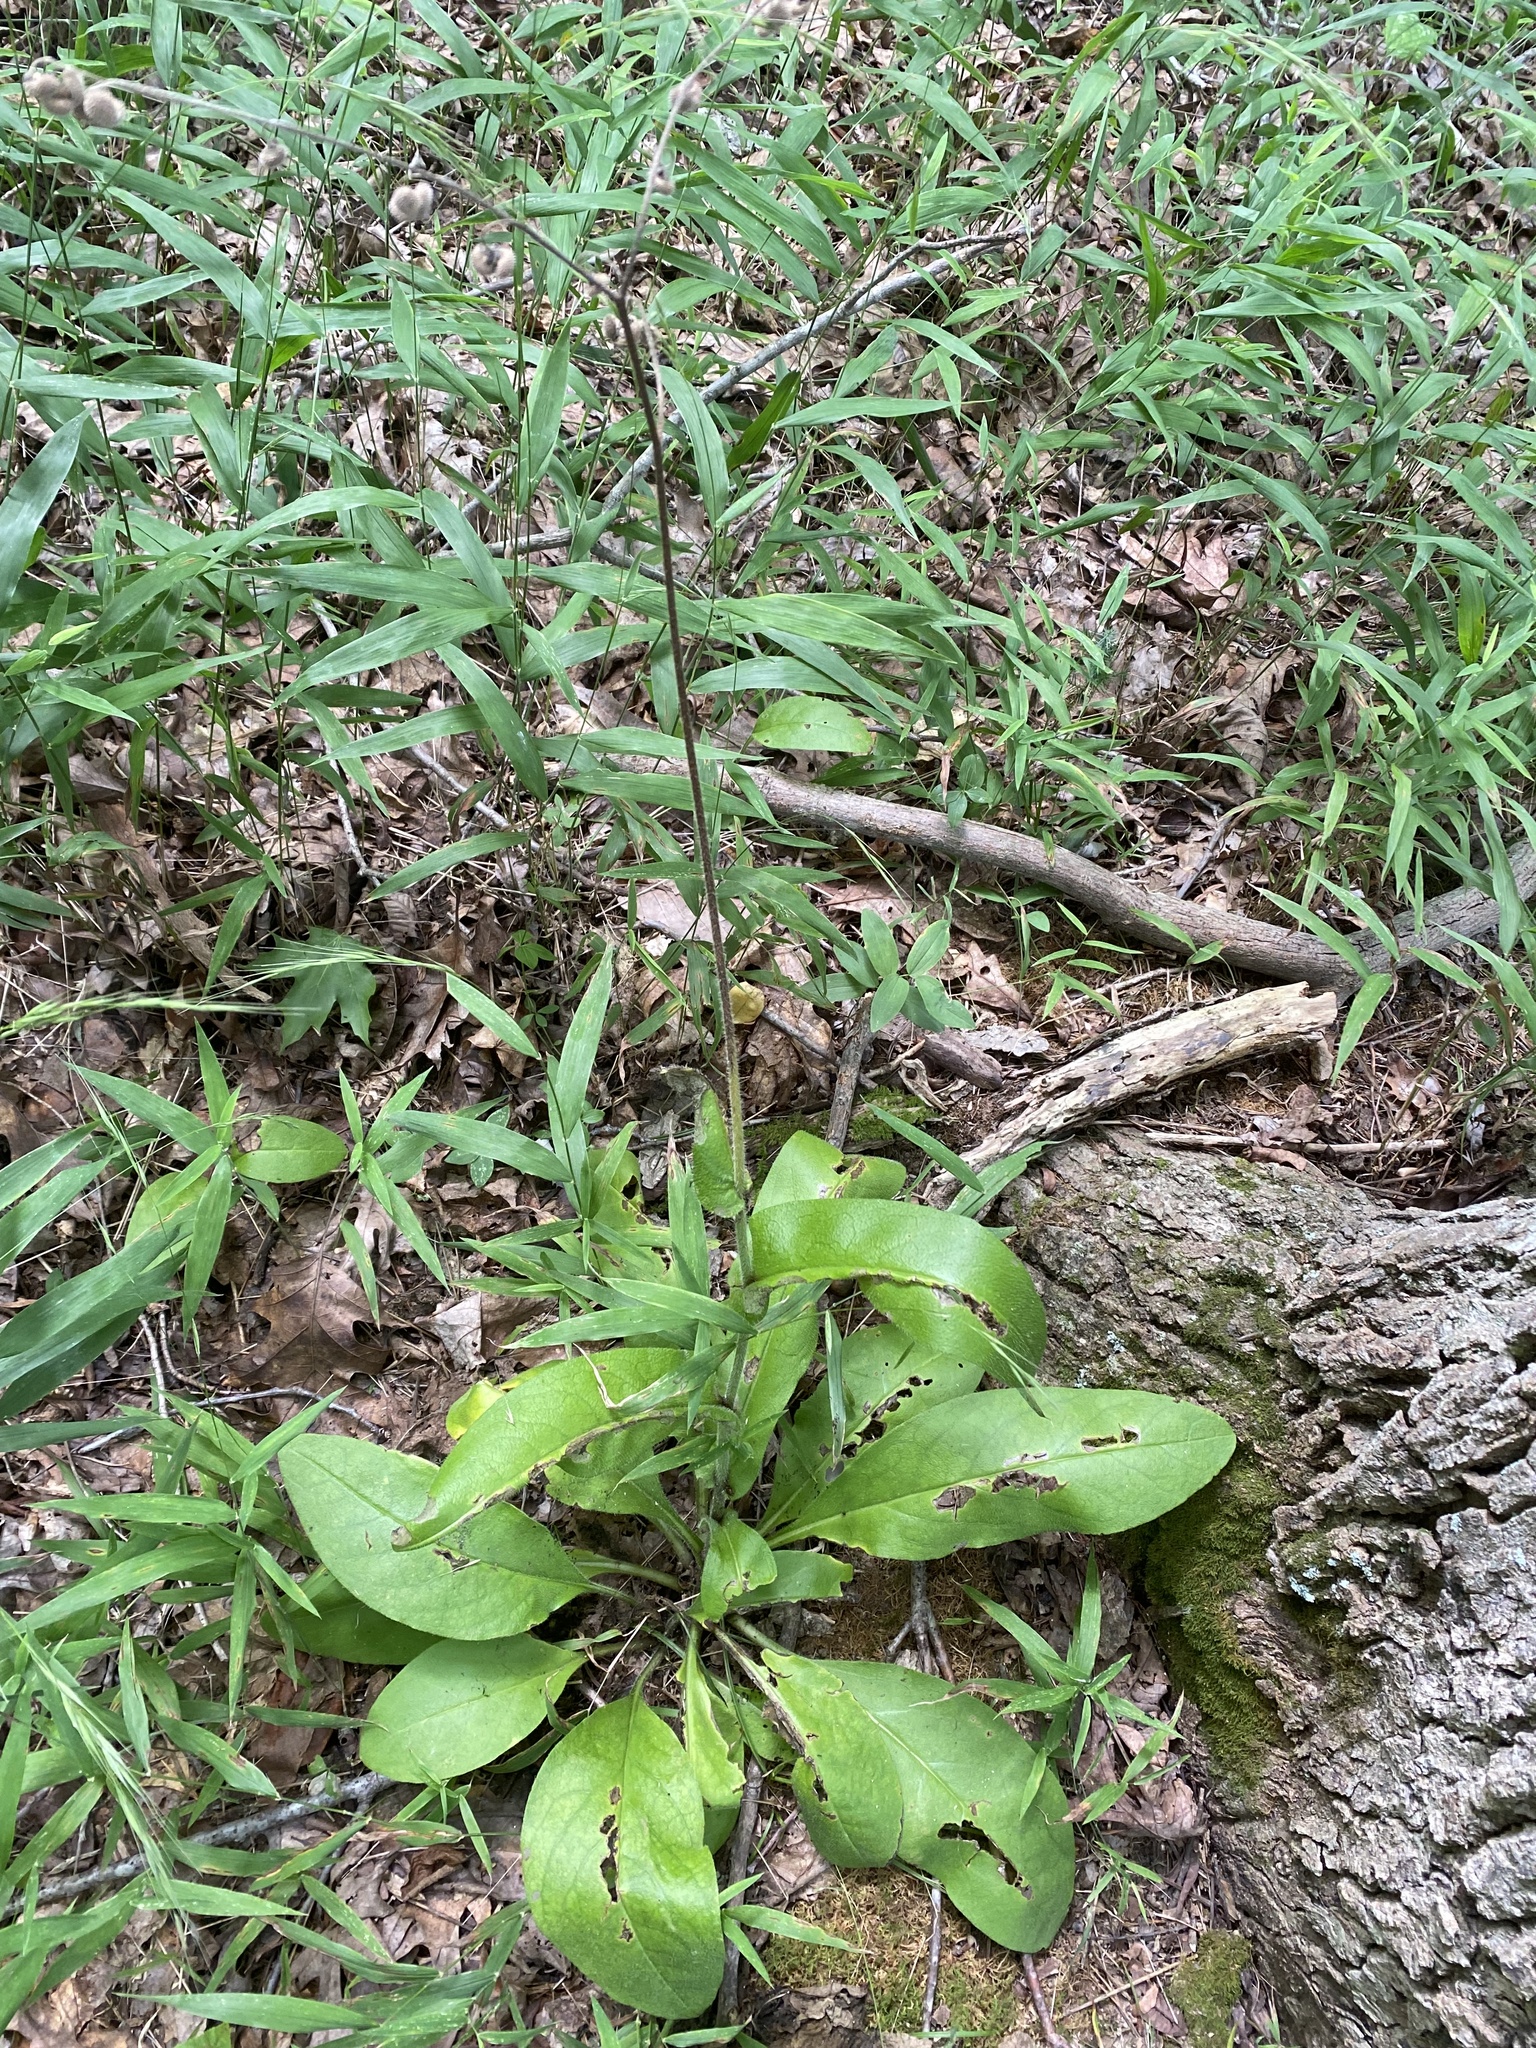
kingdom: Plantae
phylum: Tracheophyta
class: Magnoliopsida
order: Boraginales
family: Boraginaceae
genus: Andersonglossum
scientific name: Andersonglossum virginianum
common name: Wild comfrey
